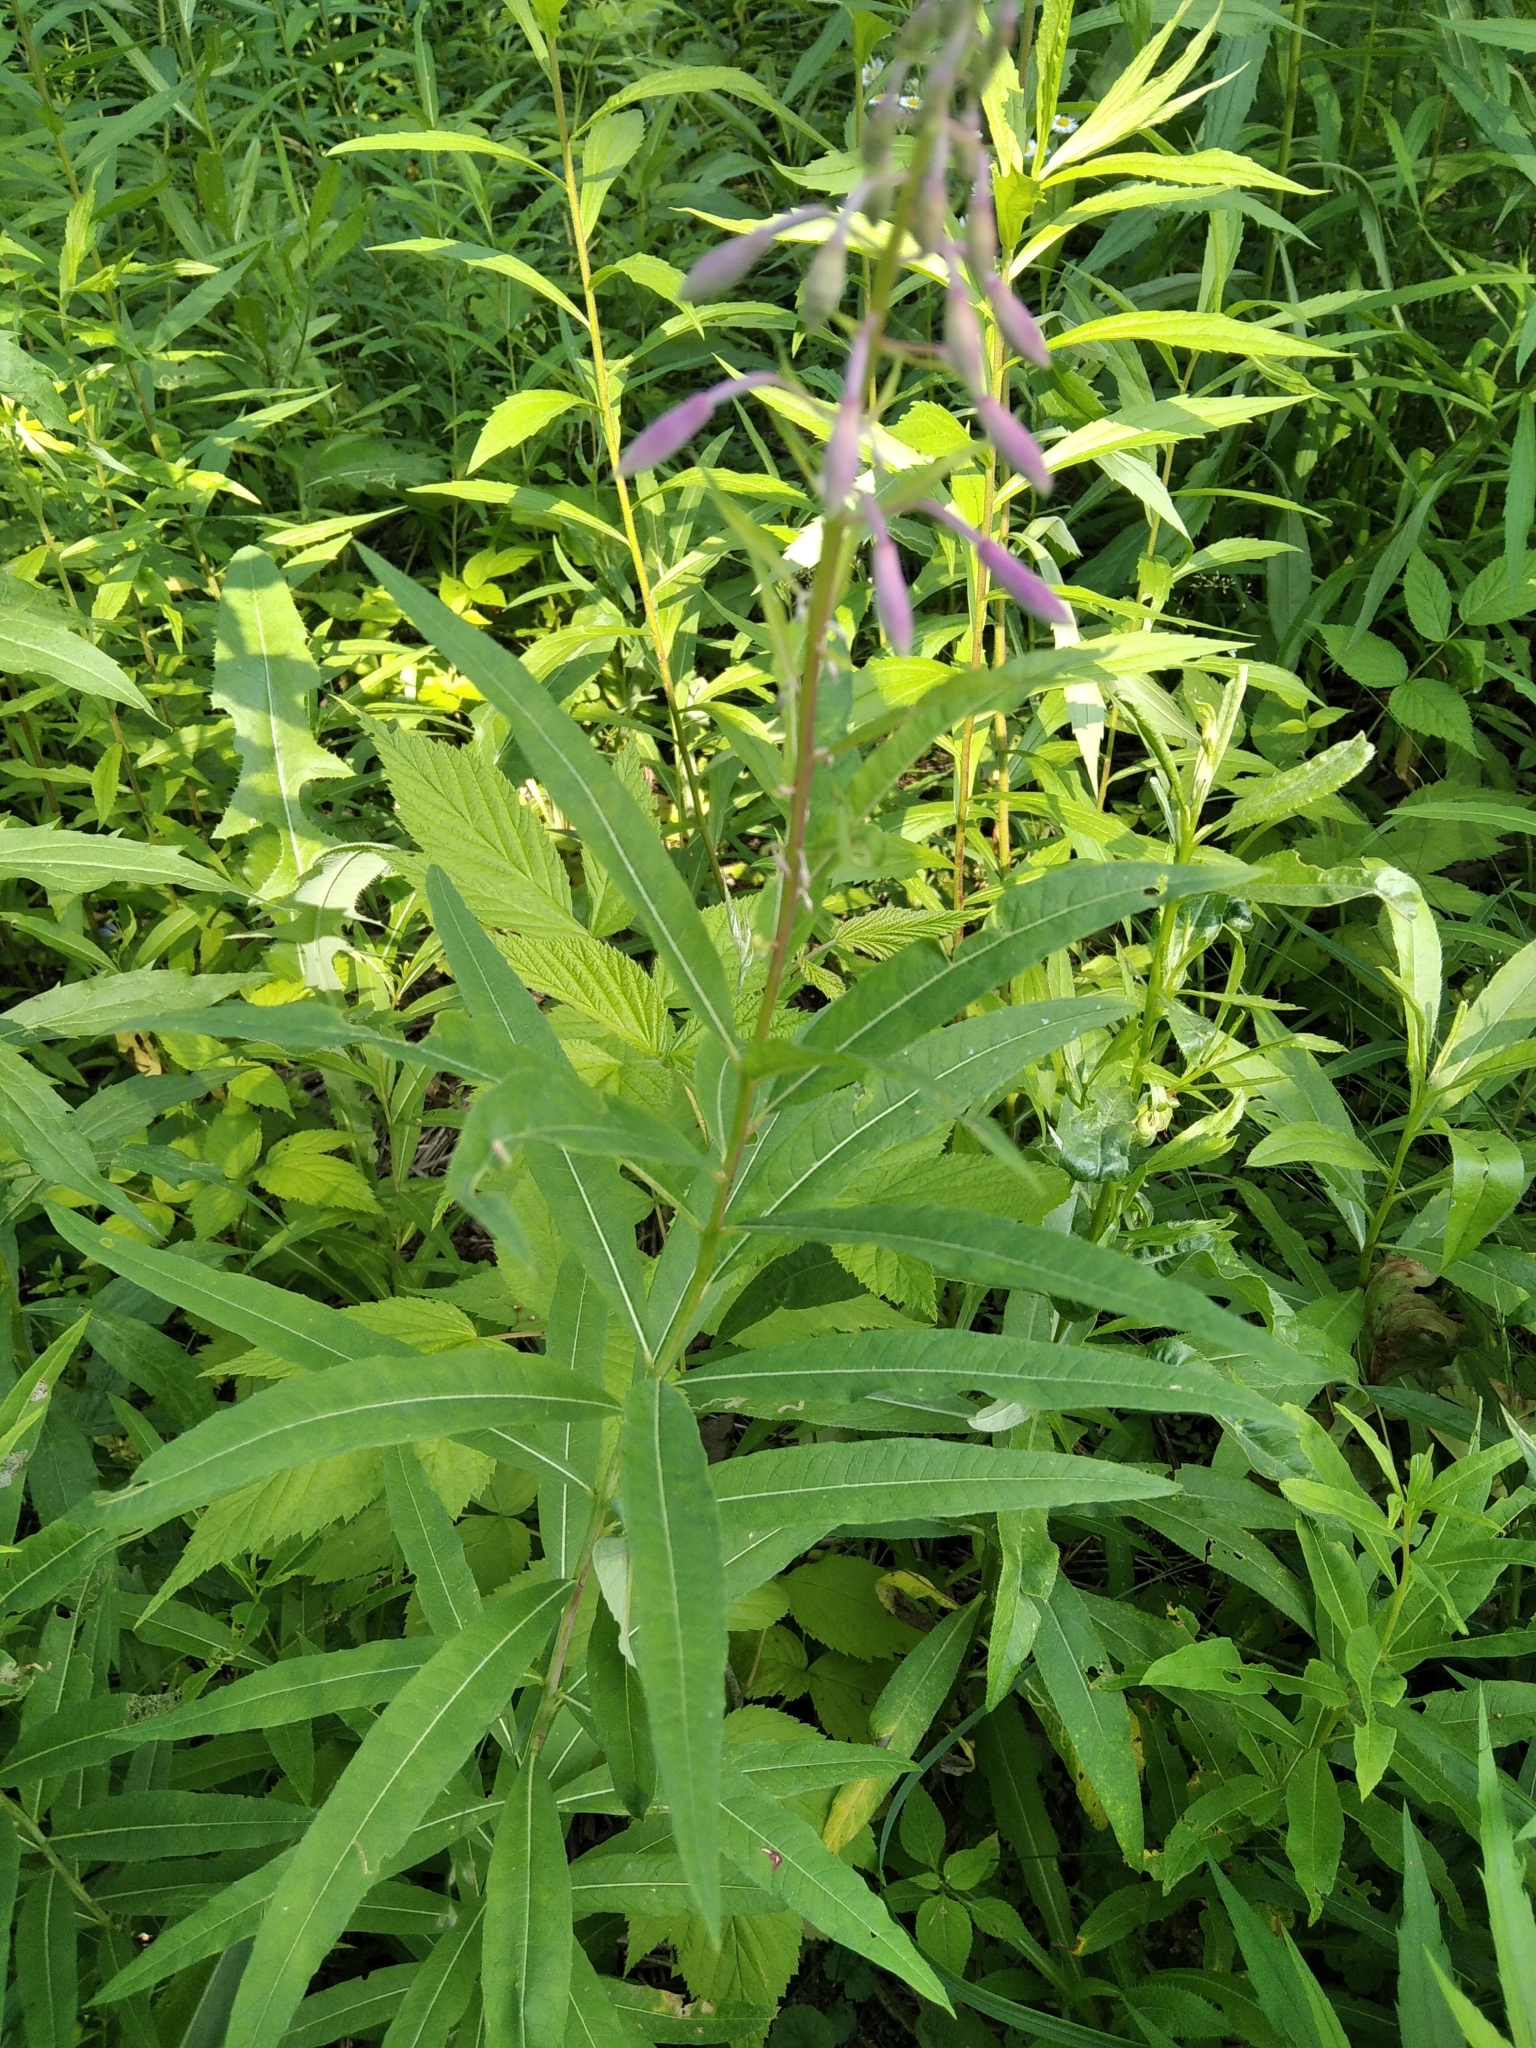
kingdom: Plantae
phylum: Tracheophyta
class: Magnoliopsida
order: Myrtales
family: Onagraceae
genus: Chamaenerion
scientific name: Chamaenerion angustifolium
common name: Fireweed
